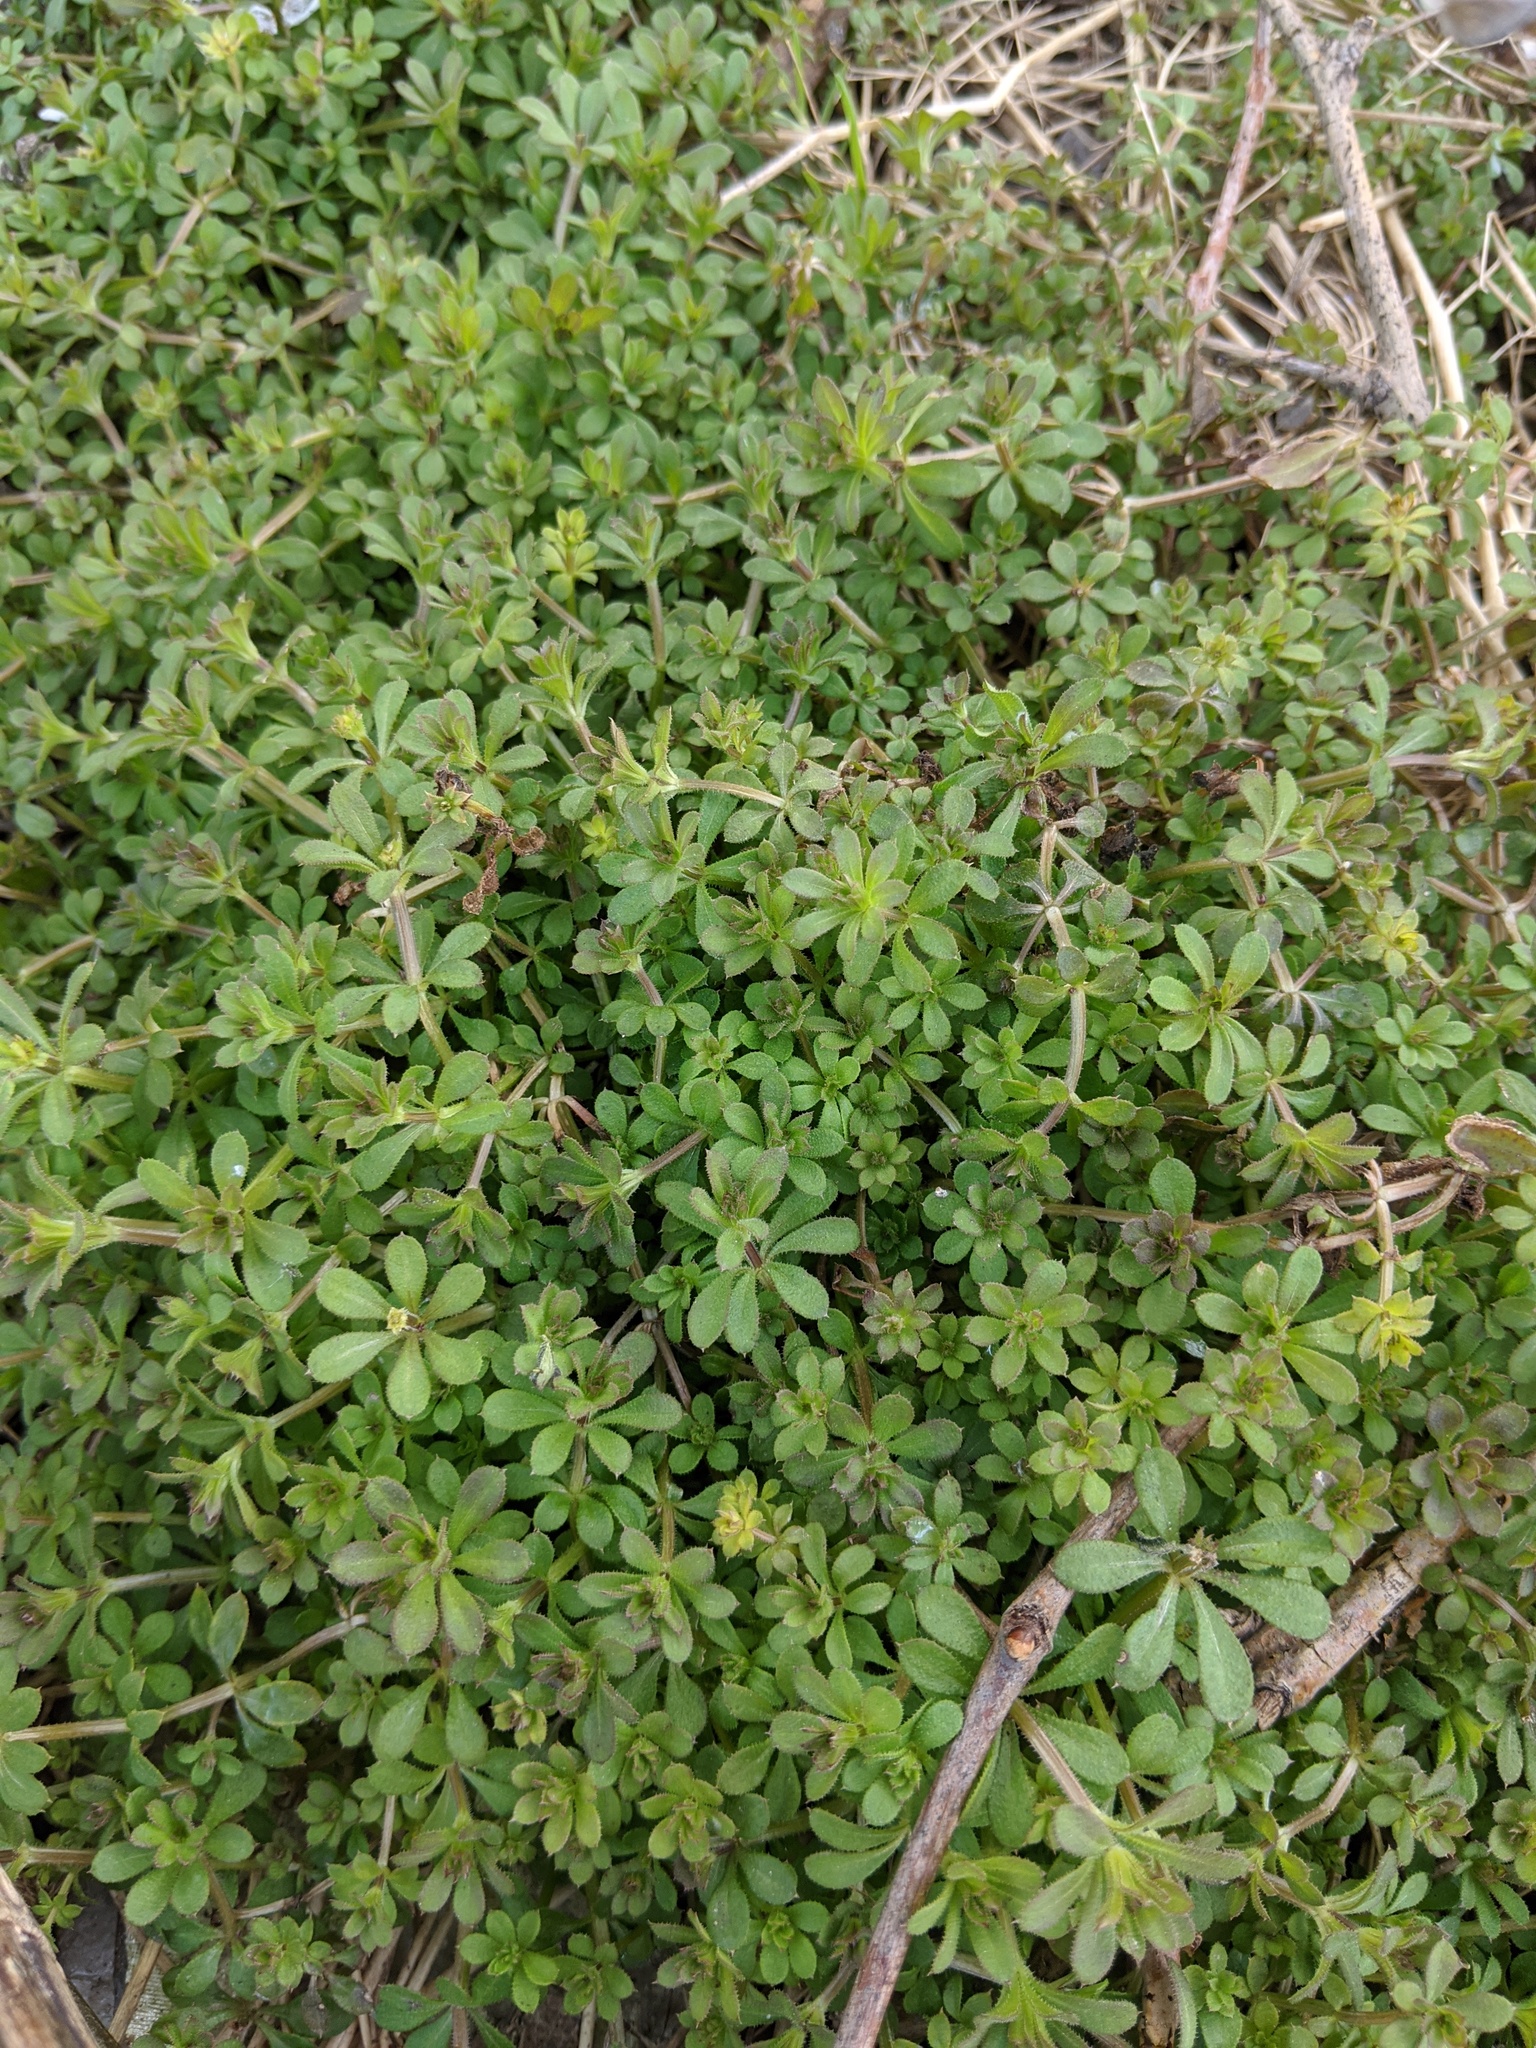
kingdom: Plantae
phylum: Tracheophyta
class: Magnoliopsida
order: Gentianales
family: Rubiaceae
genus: Galium
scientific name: Galium aparine
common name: Cleavers
